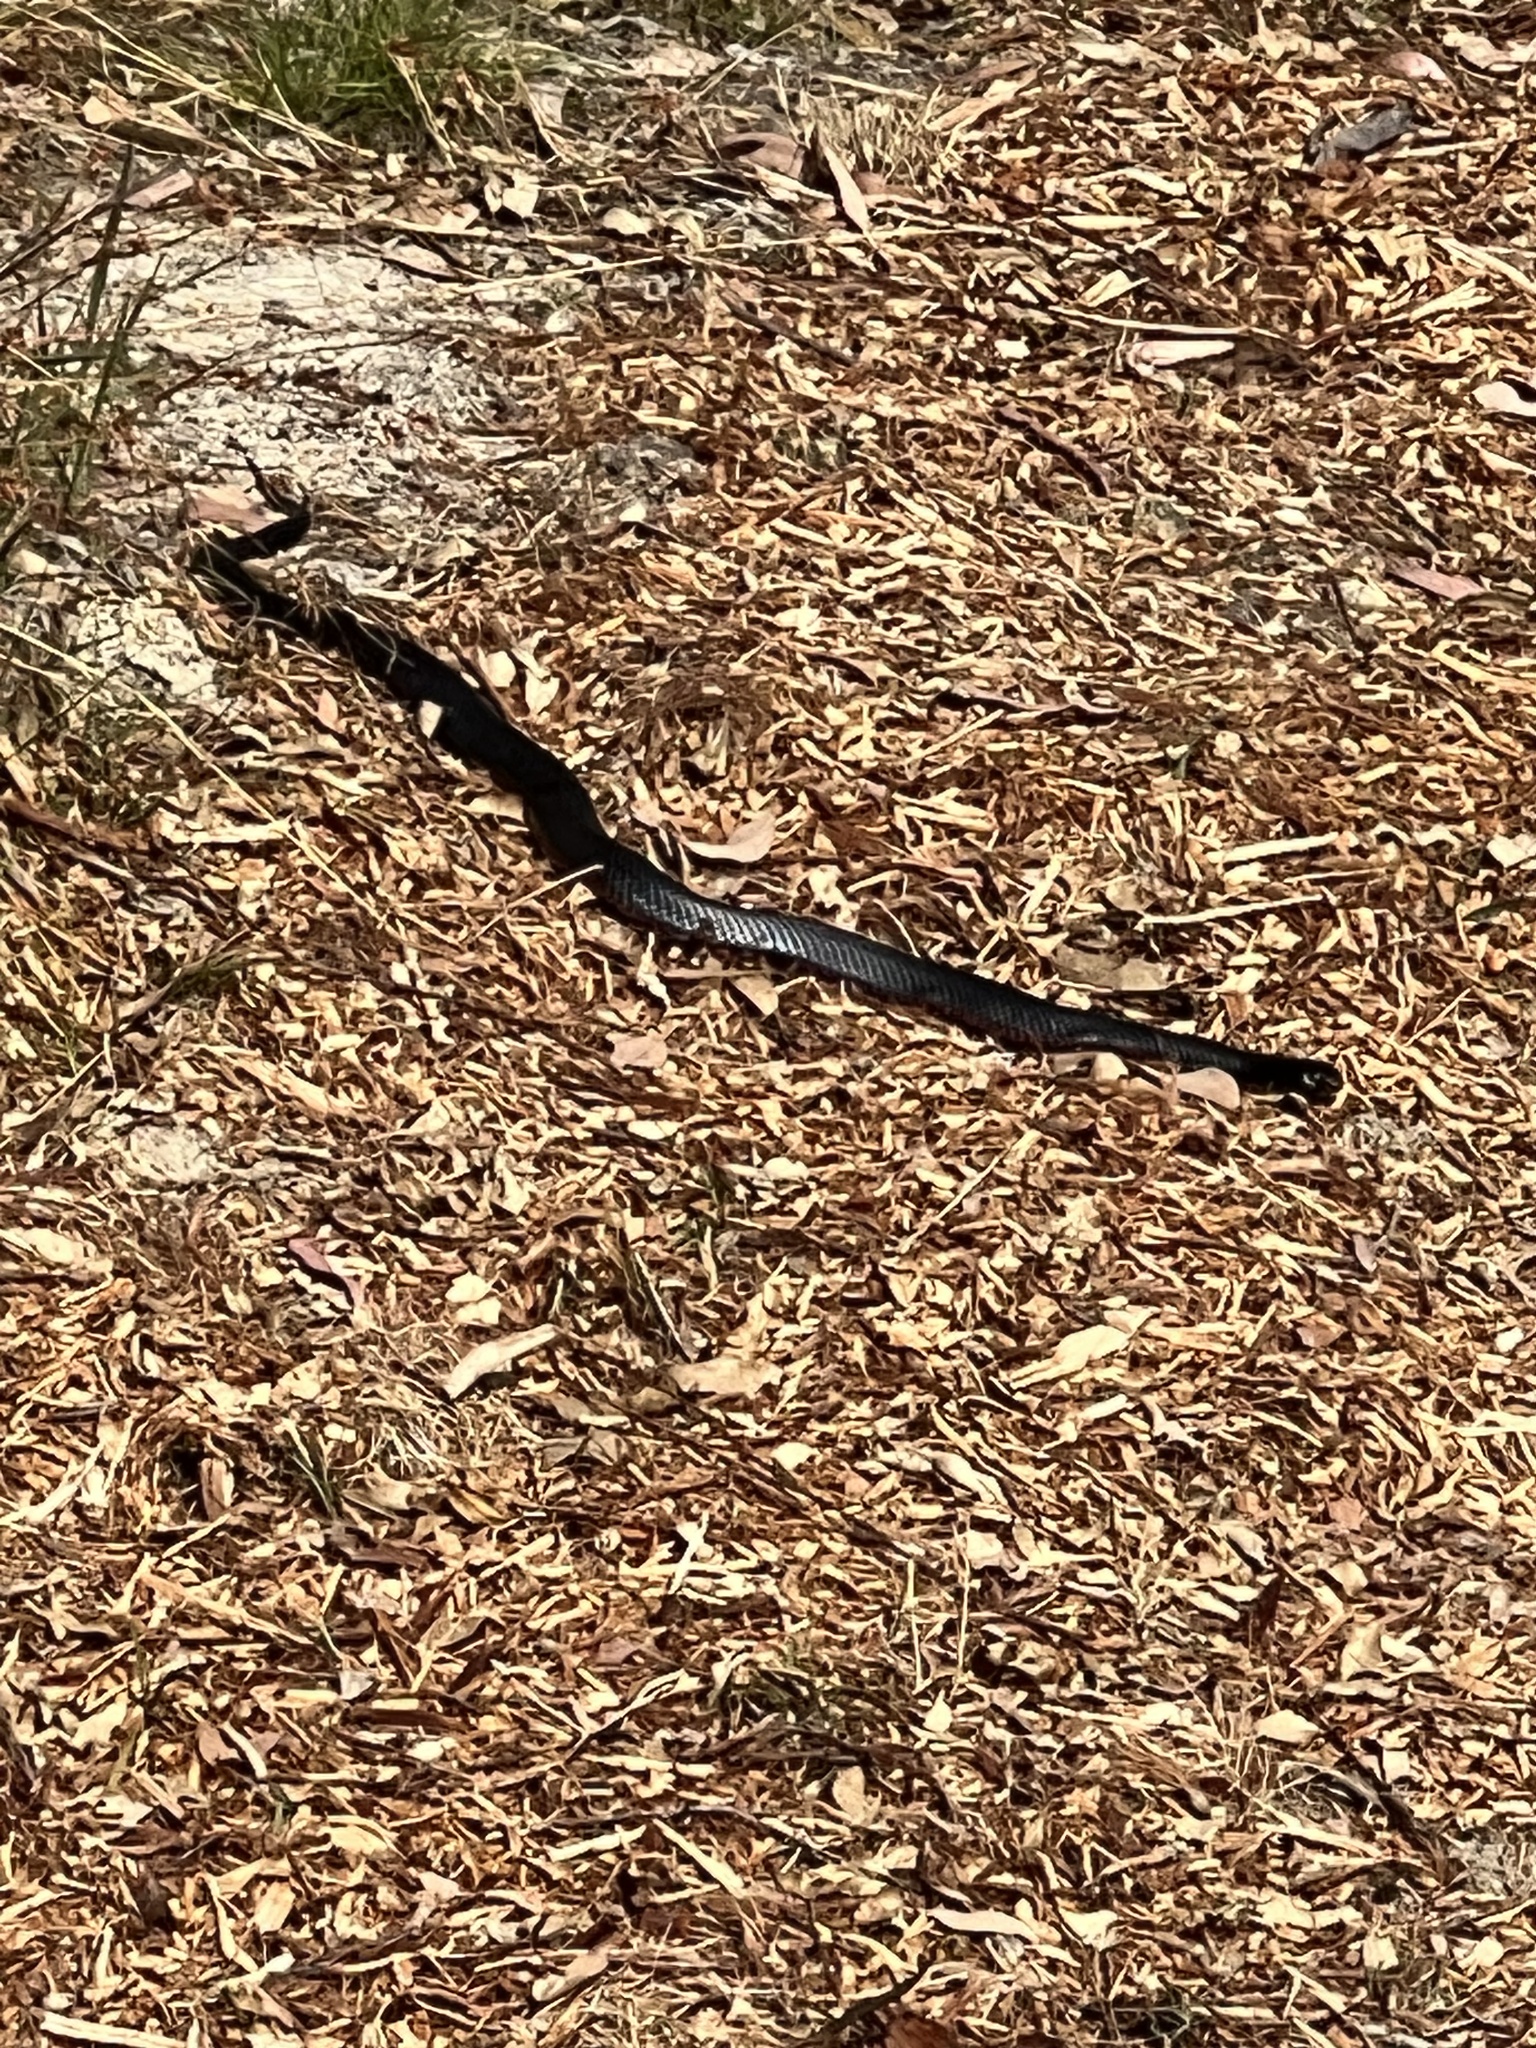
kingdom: Animalia
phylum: Chordata
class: Squamata
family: Elapidae
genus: Pseudechis
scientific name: Pseudechis porphyriacus
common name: Australian black snake
